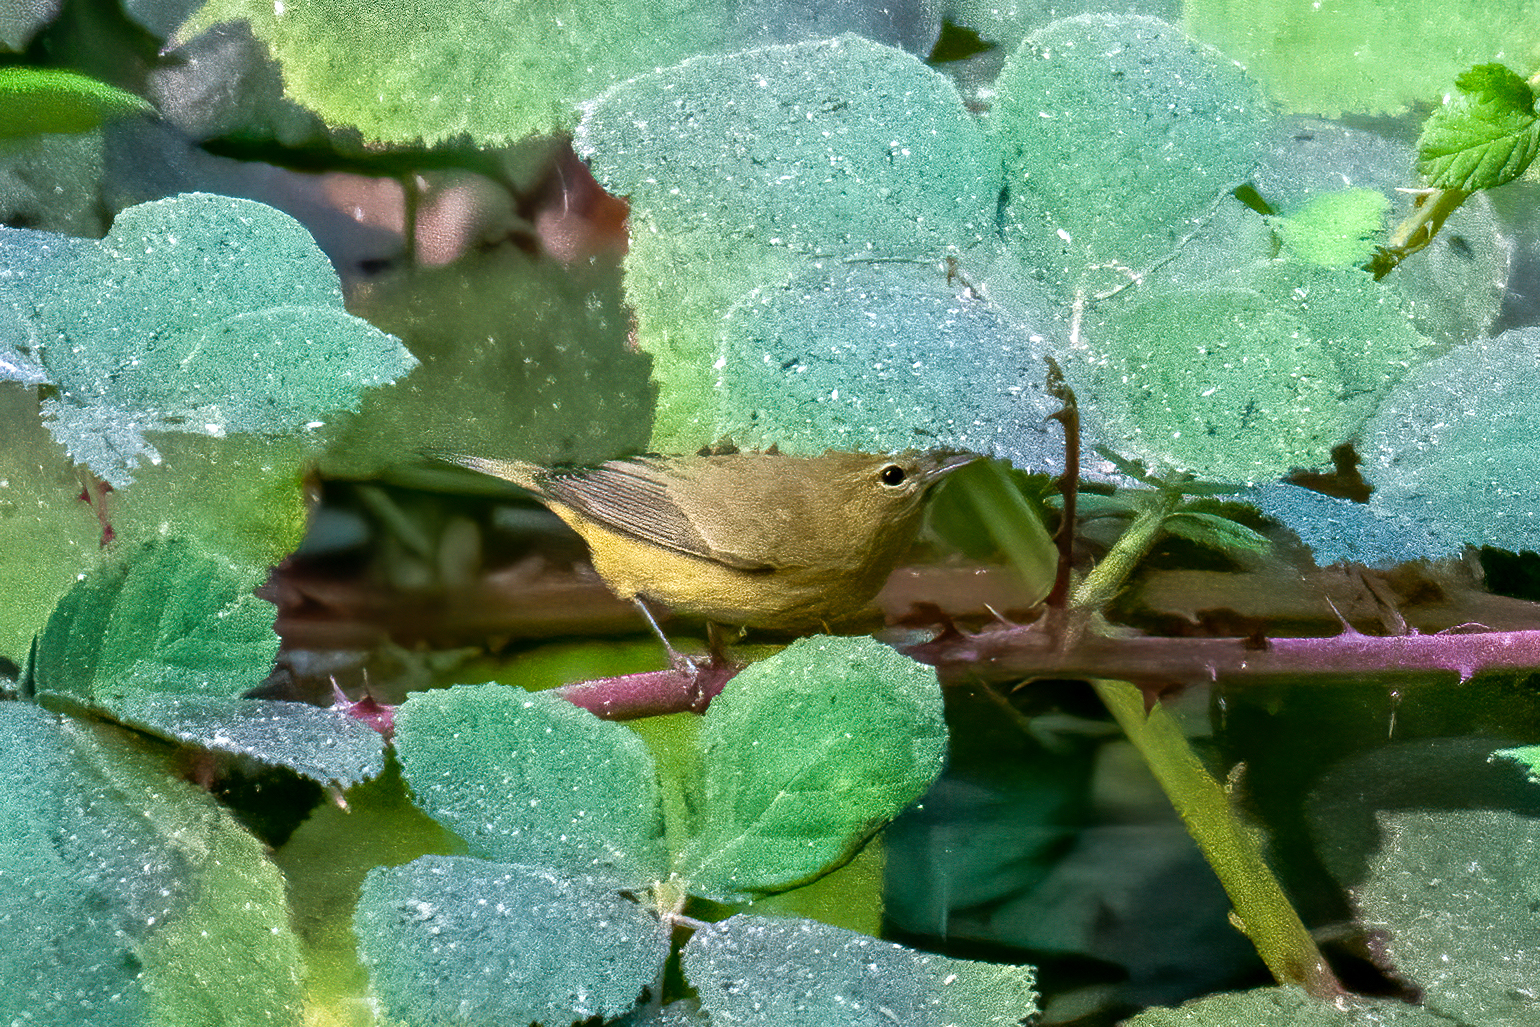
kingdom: Animalia
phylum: Chordata
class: Aves
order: Passeriformes
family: Parulidae
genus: Leiothlypis
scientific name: Leiothlypis celata
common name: Orange-crowned warbler
